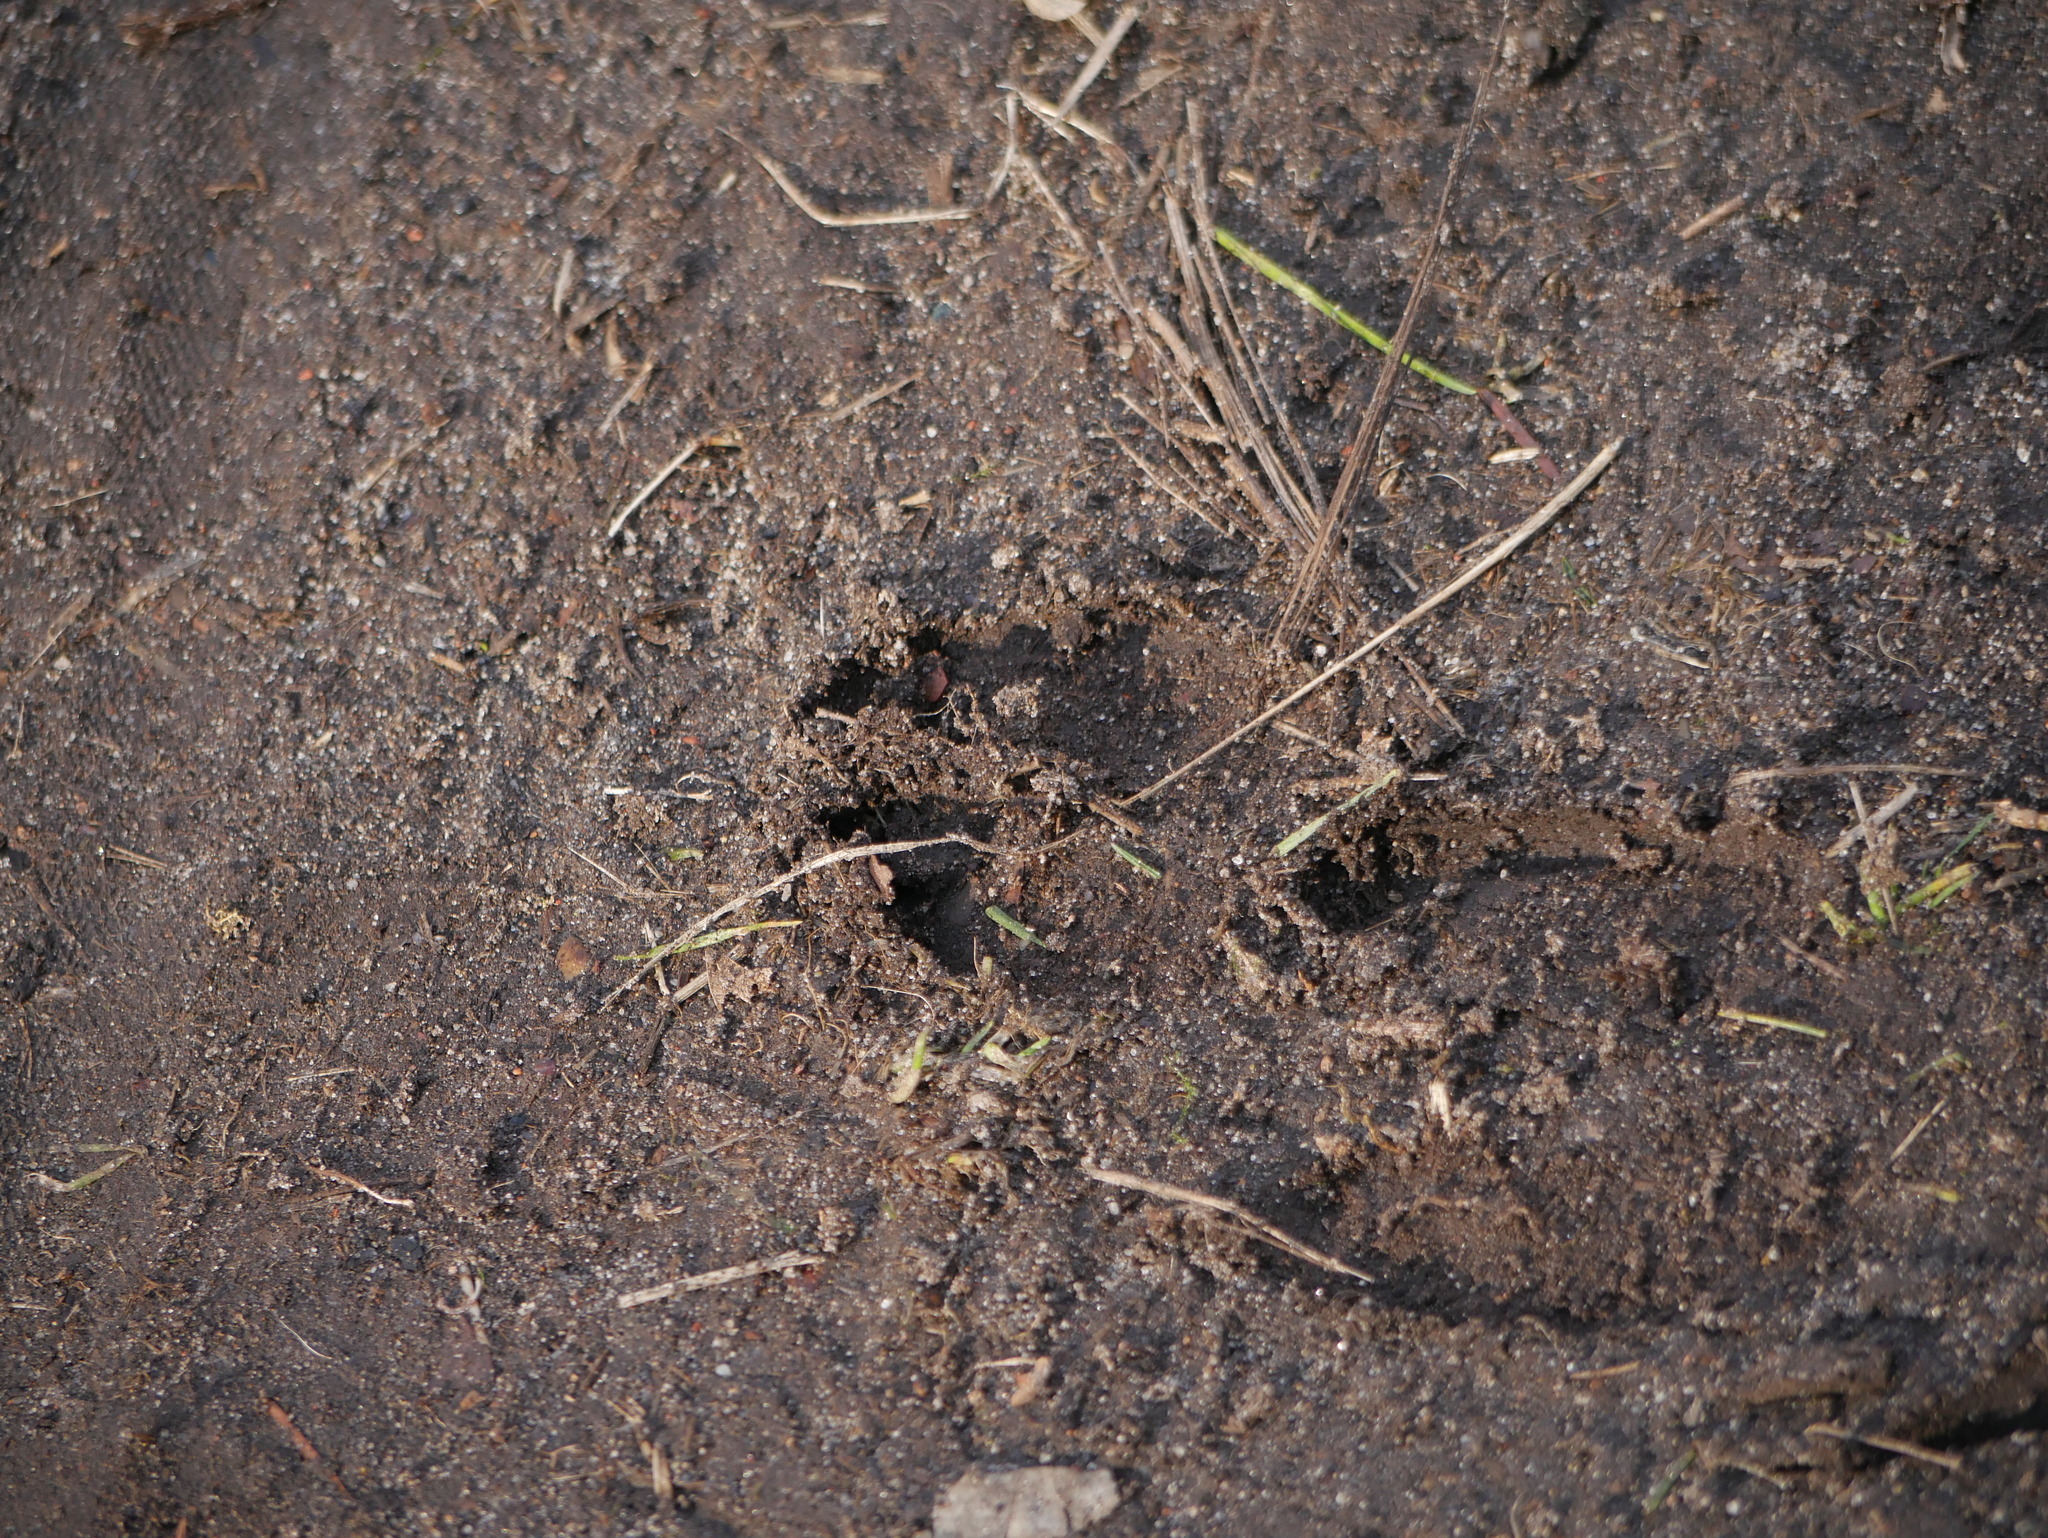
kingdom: Animalia
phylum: Chordata
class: Mammalia
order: Artiodactyla
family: Suidae
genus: Sus
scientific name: Sus scrofa
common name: Wild boar
